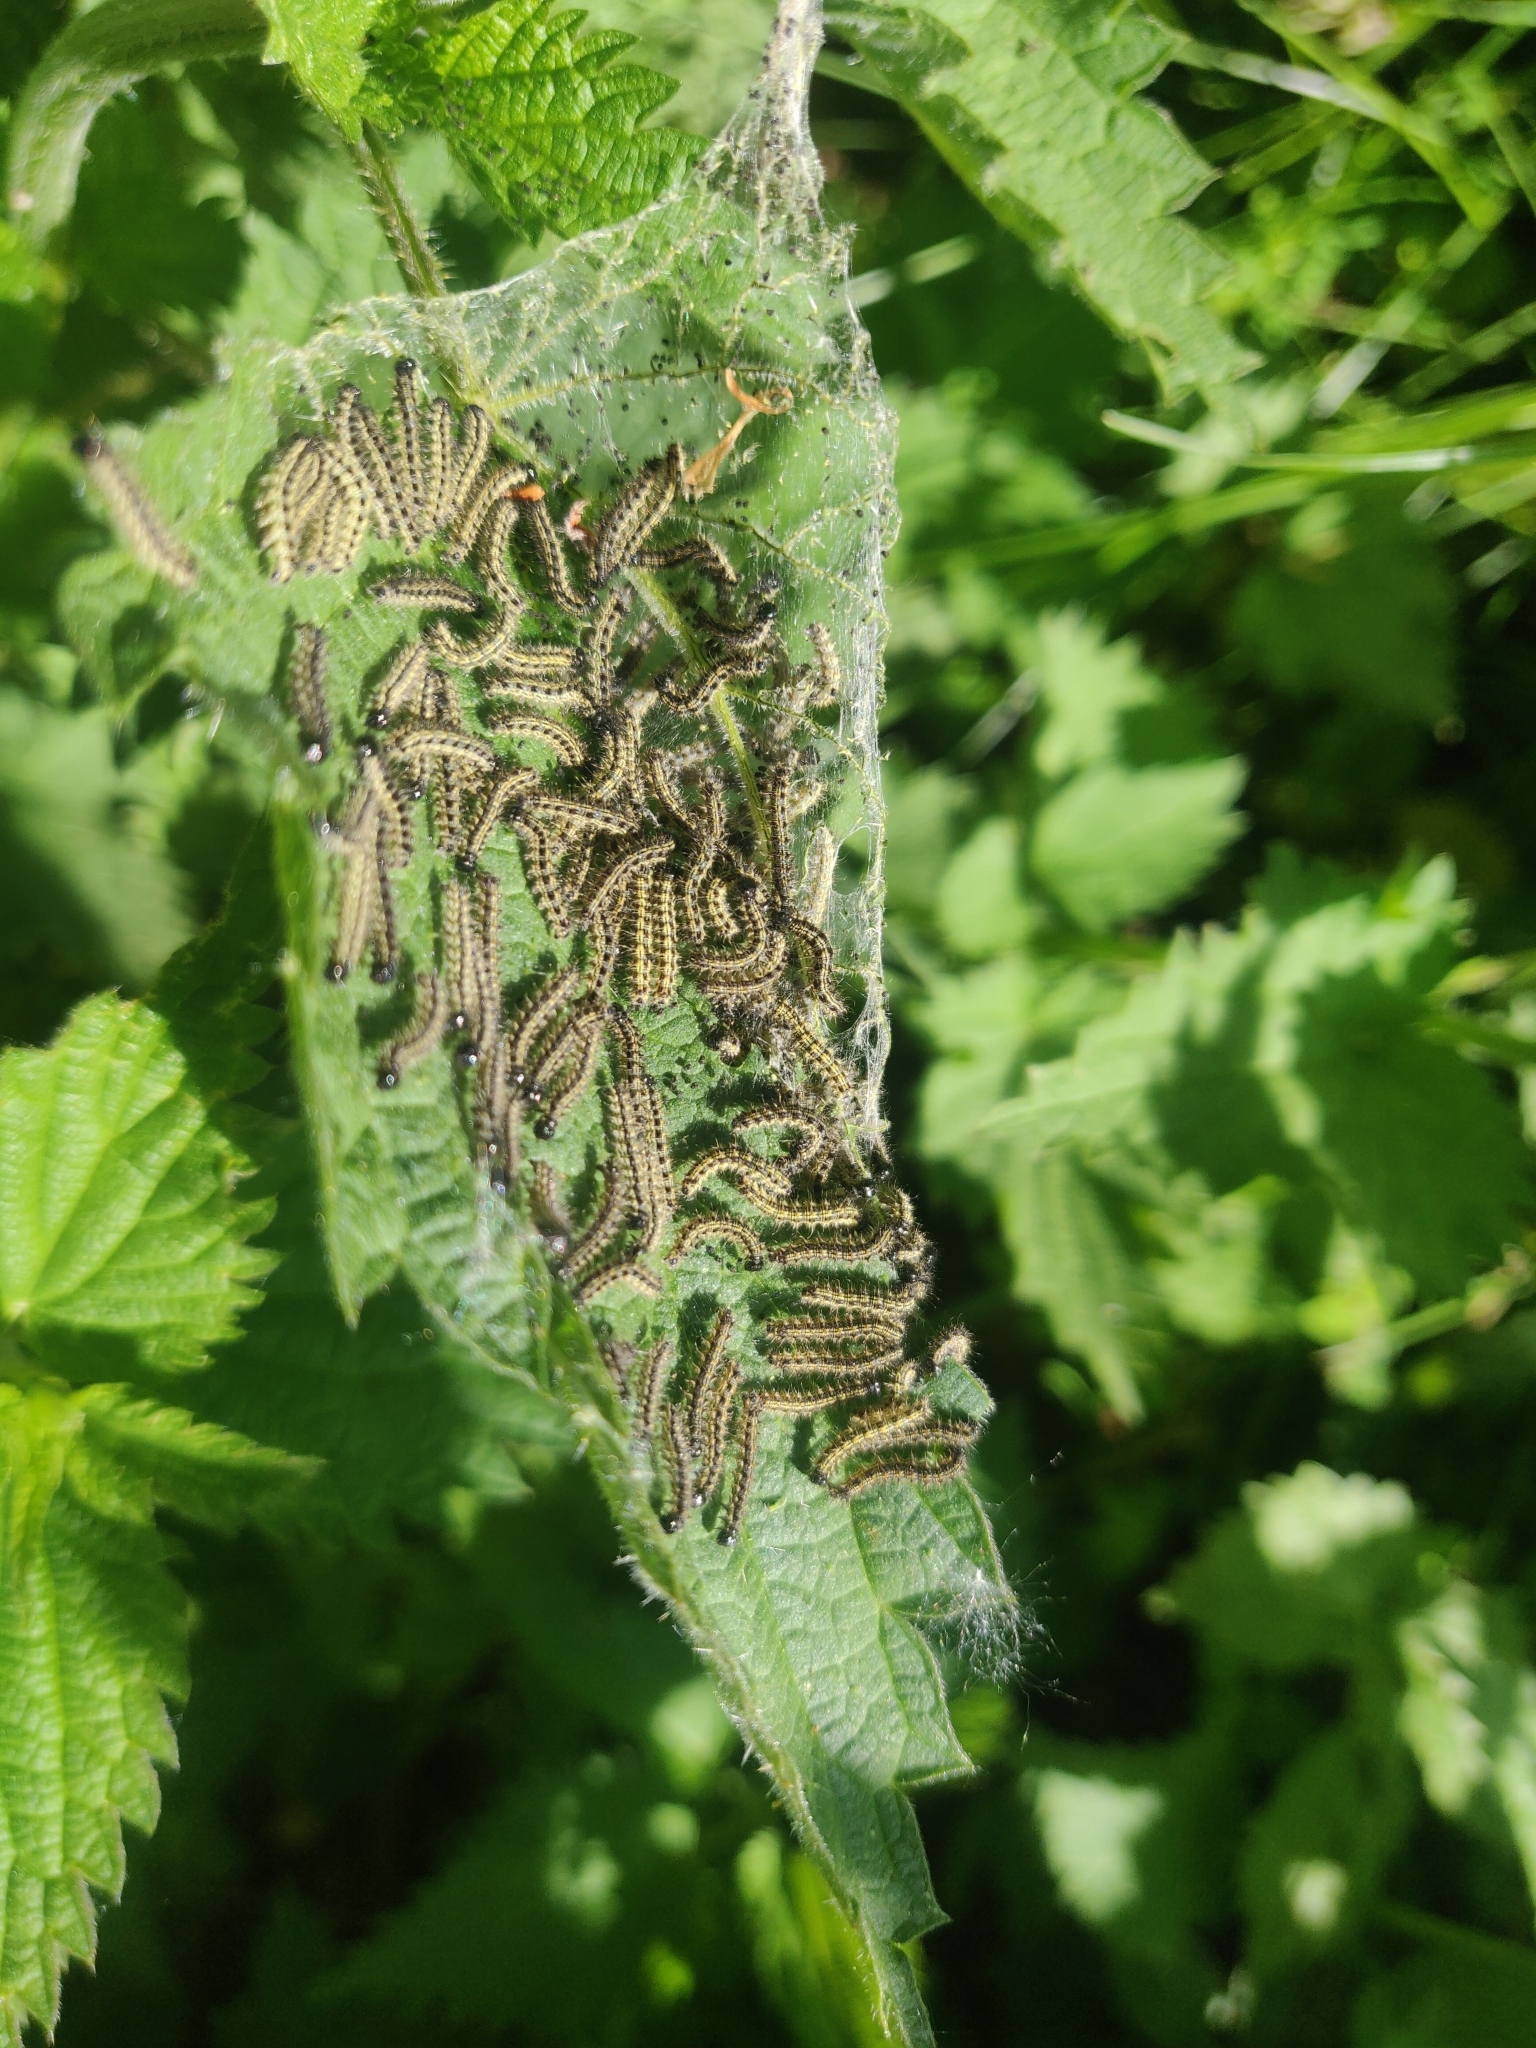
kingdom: Animalia
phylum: Arthropoda
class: Insecta
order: Lepidoptera
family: Nymphalidae
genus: Aglais
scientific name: Aglais urticae
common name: Small tortoiseshell
